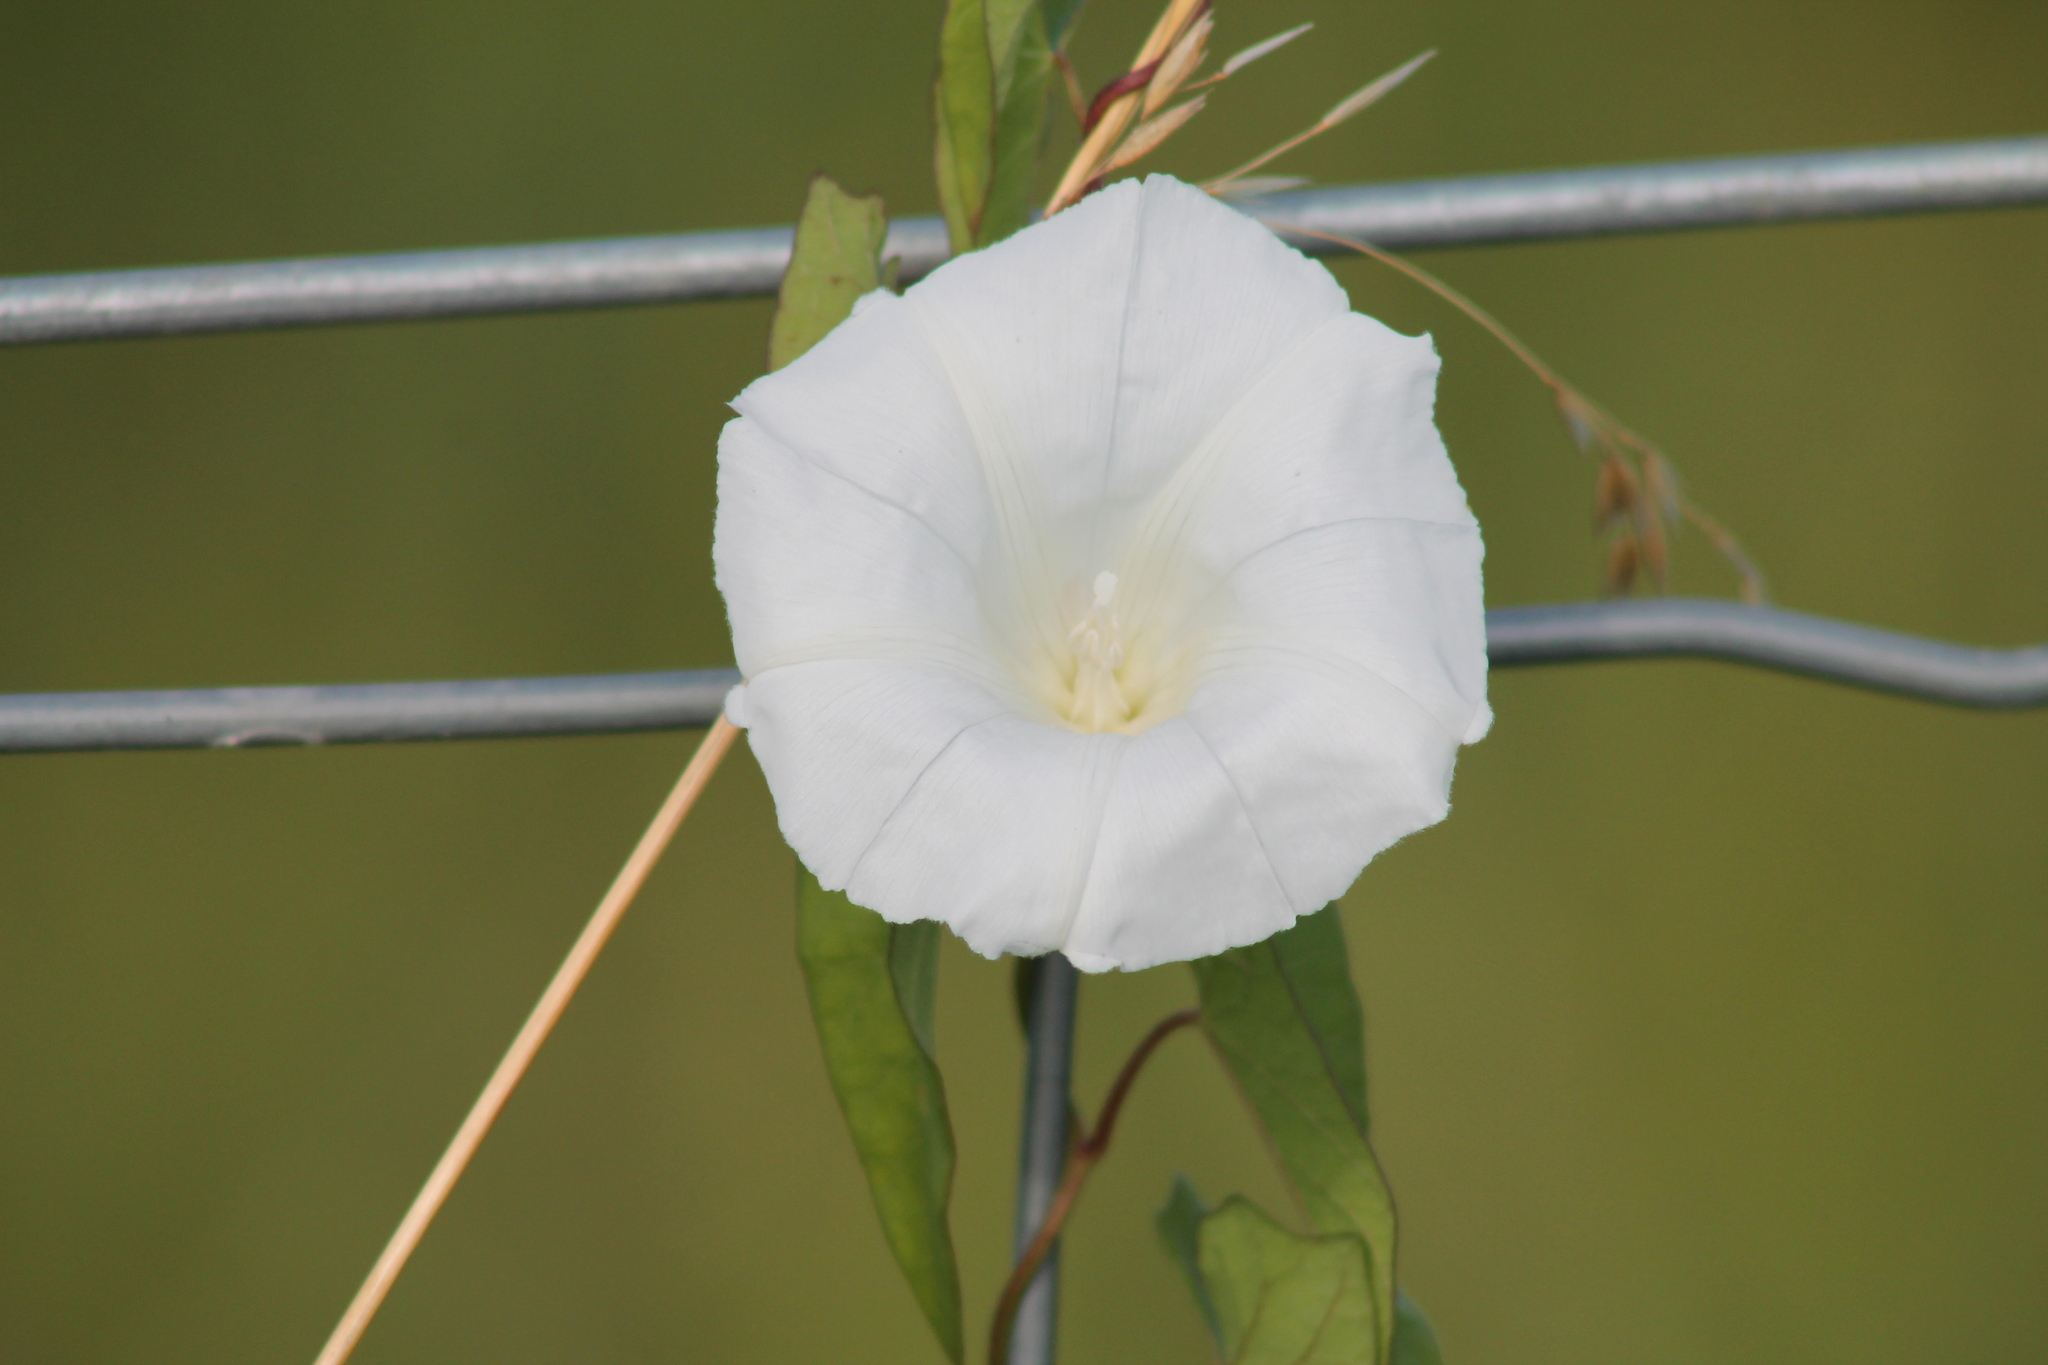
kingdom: Plantae
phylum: Tracheophyta
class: Magnoliopsida
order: Solanales
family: Convolvulaceae
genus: Calystegia
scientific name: Calystegia sepium
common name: Hedge bindweed
